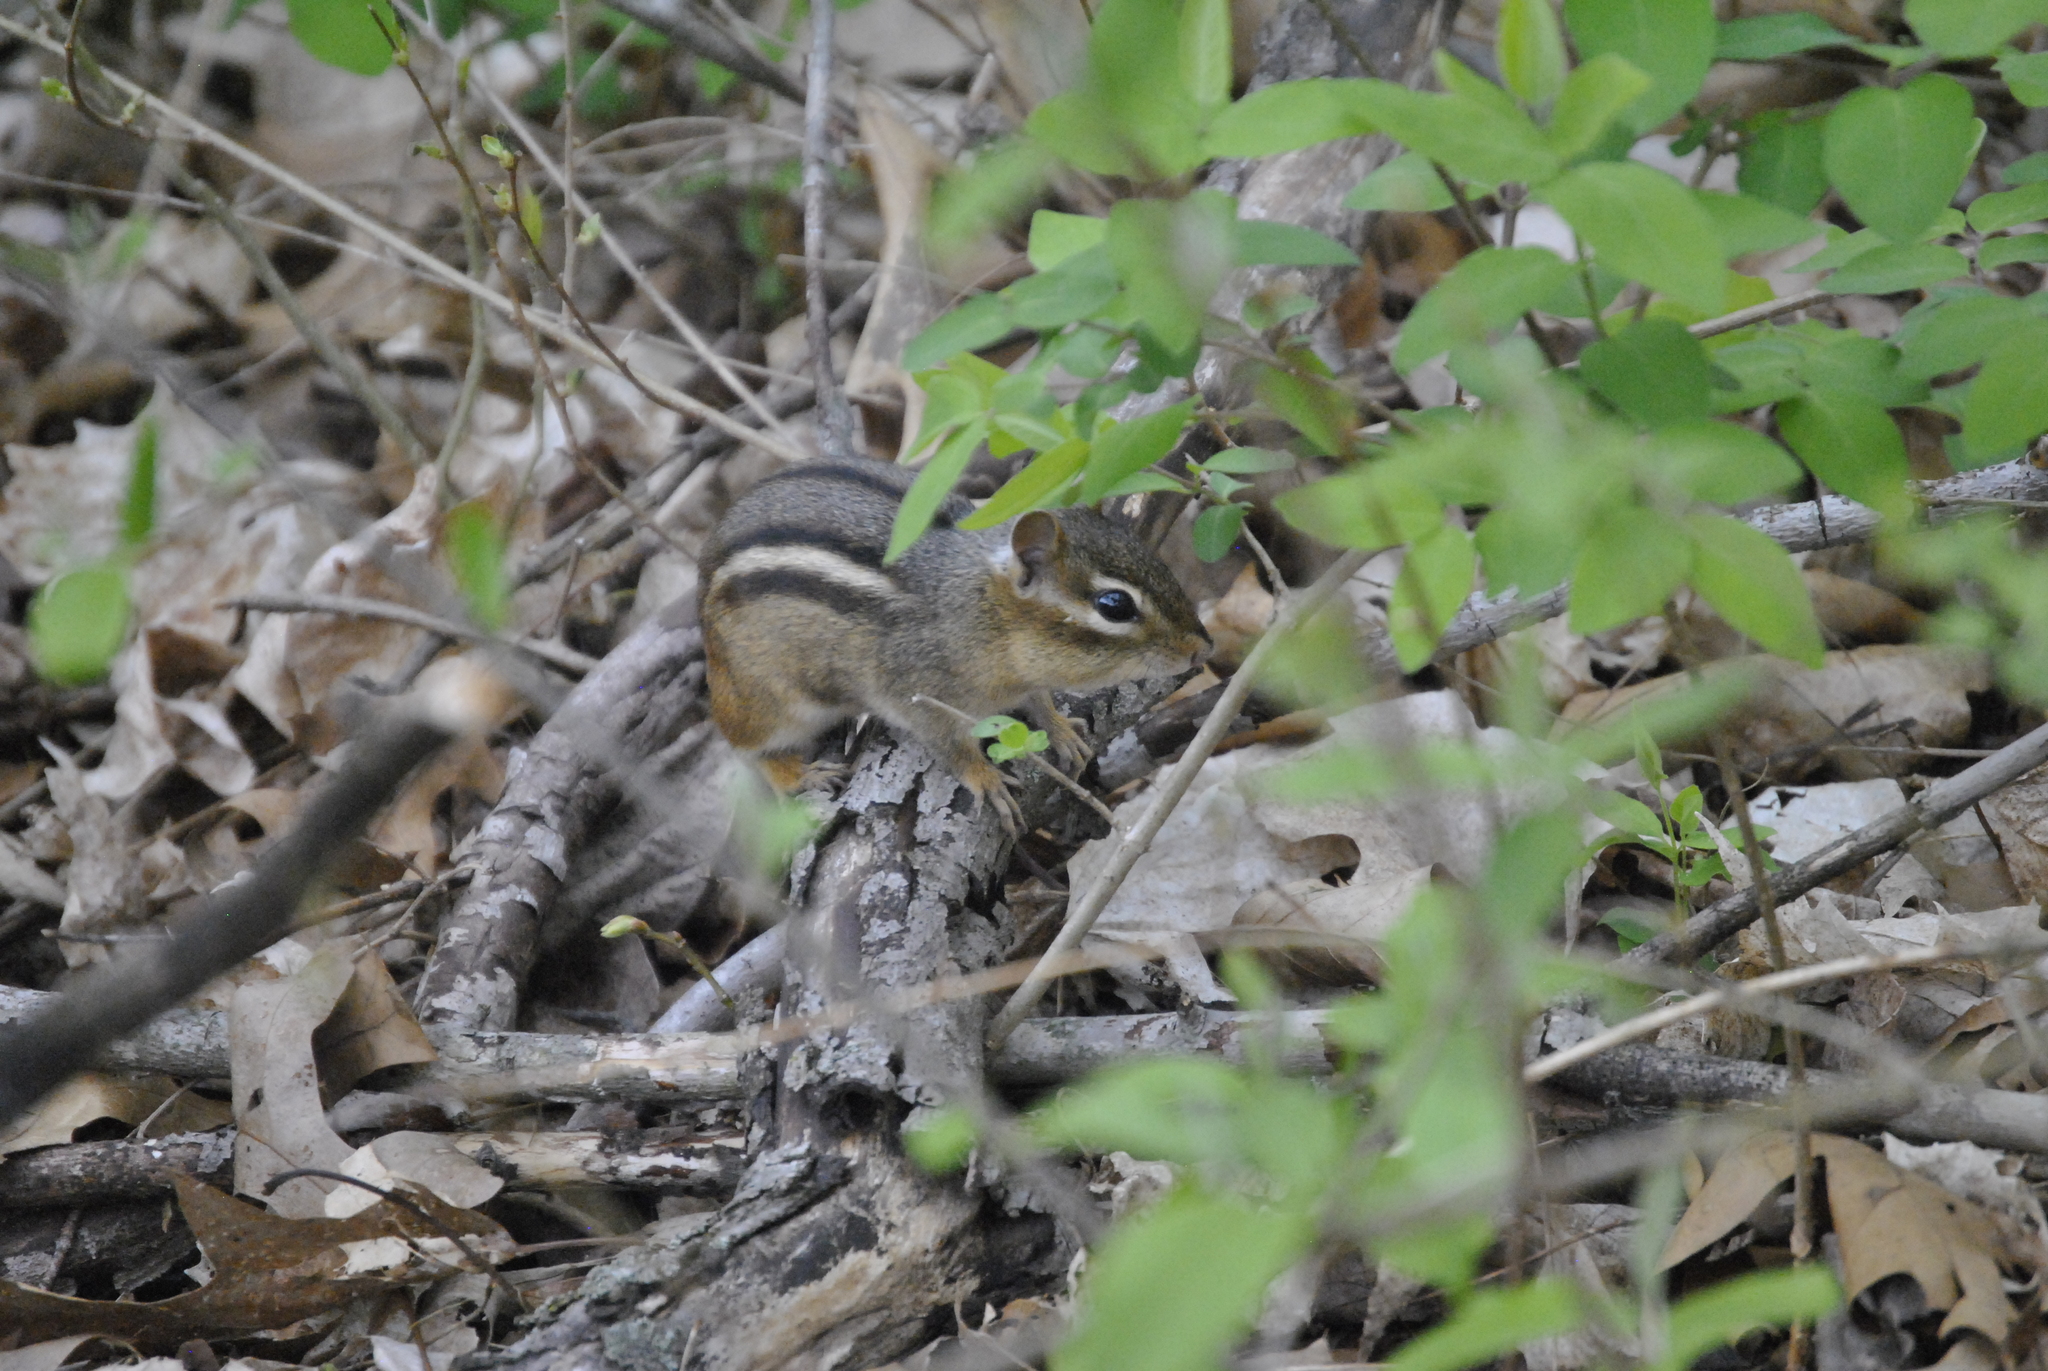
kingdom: Animalia
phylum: Chordata
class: Mammalia
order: Rodentia
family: Sciuridae
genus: Tamias
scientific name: Tamias striatus
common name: Eastern chipmunk
